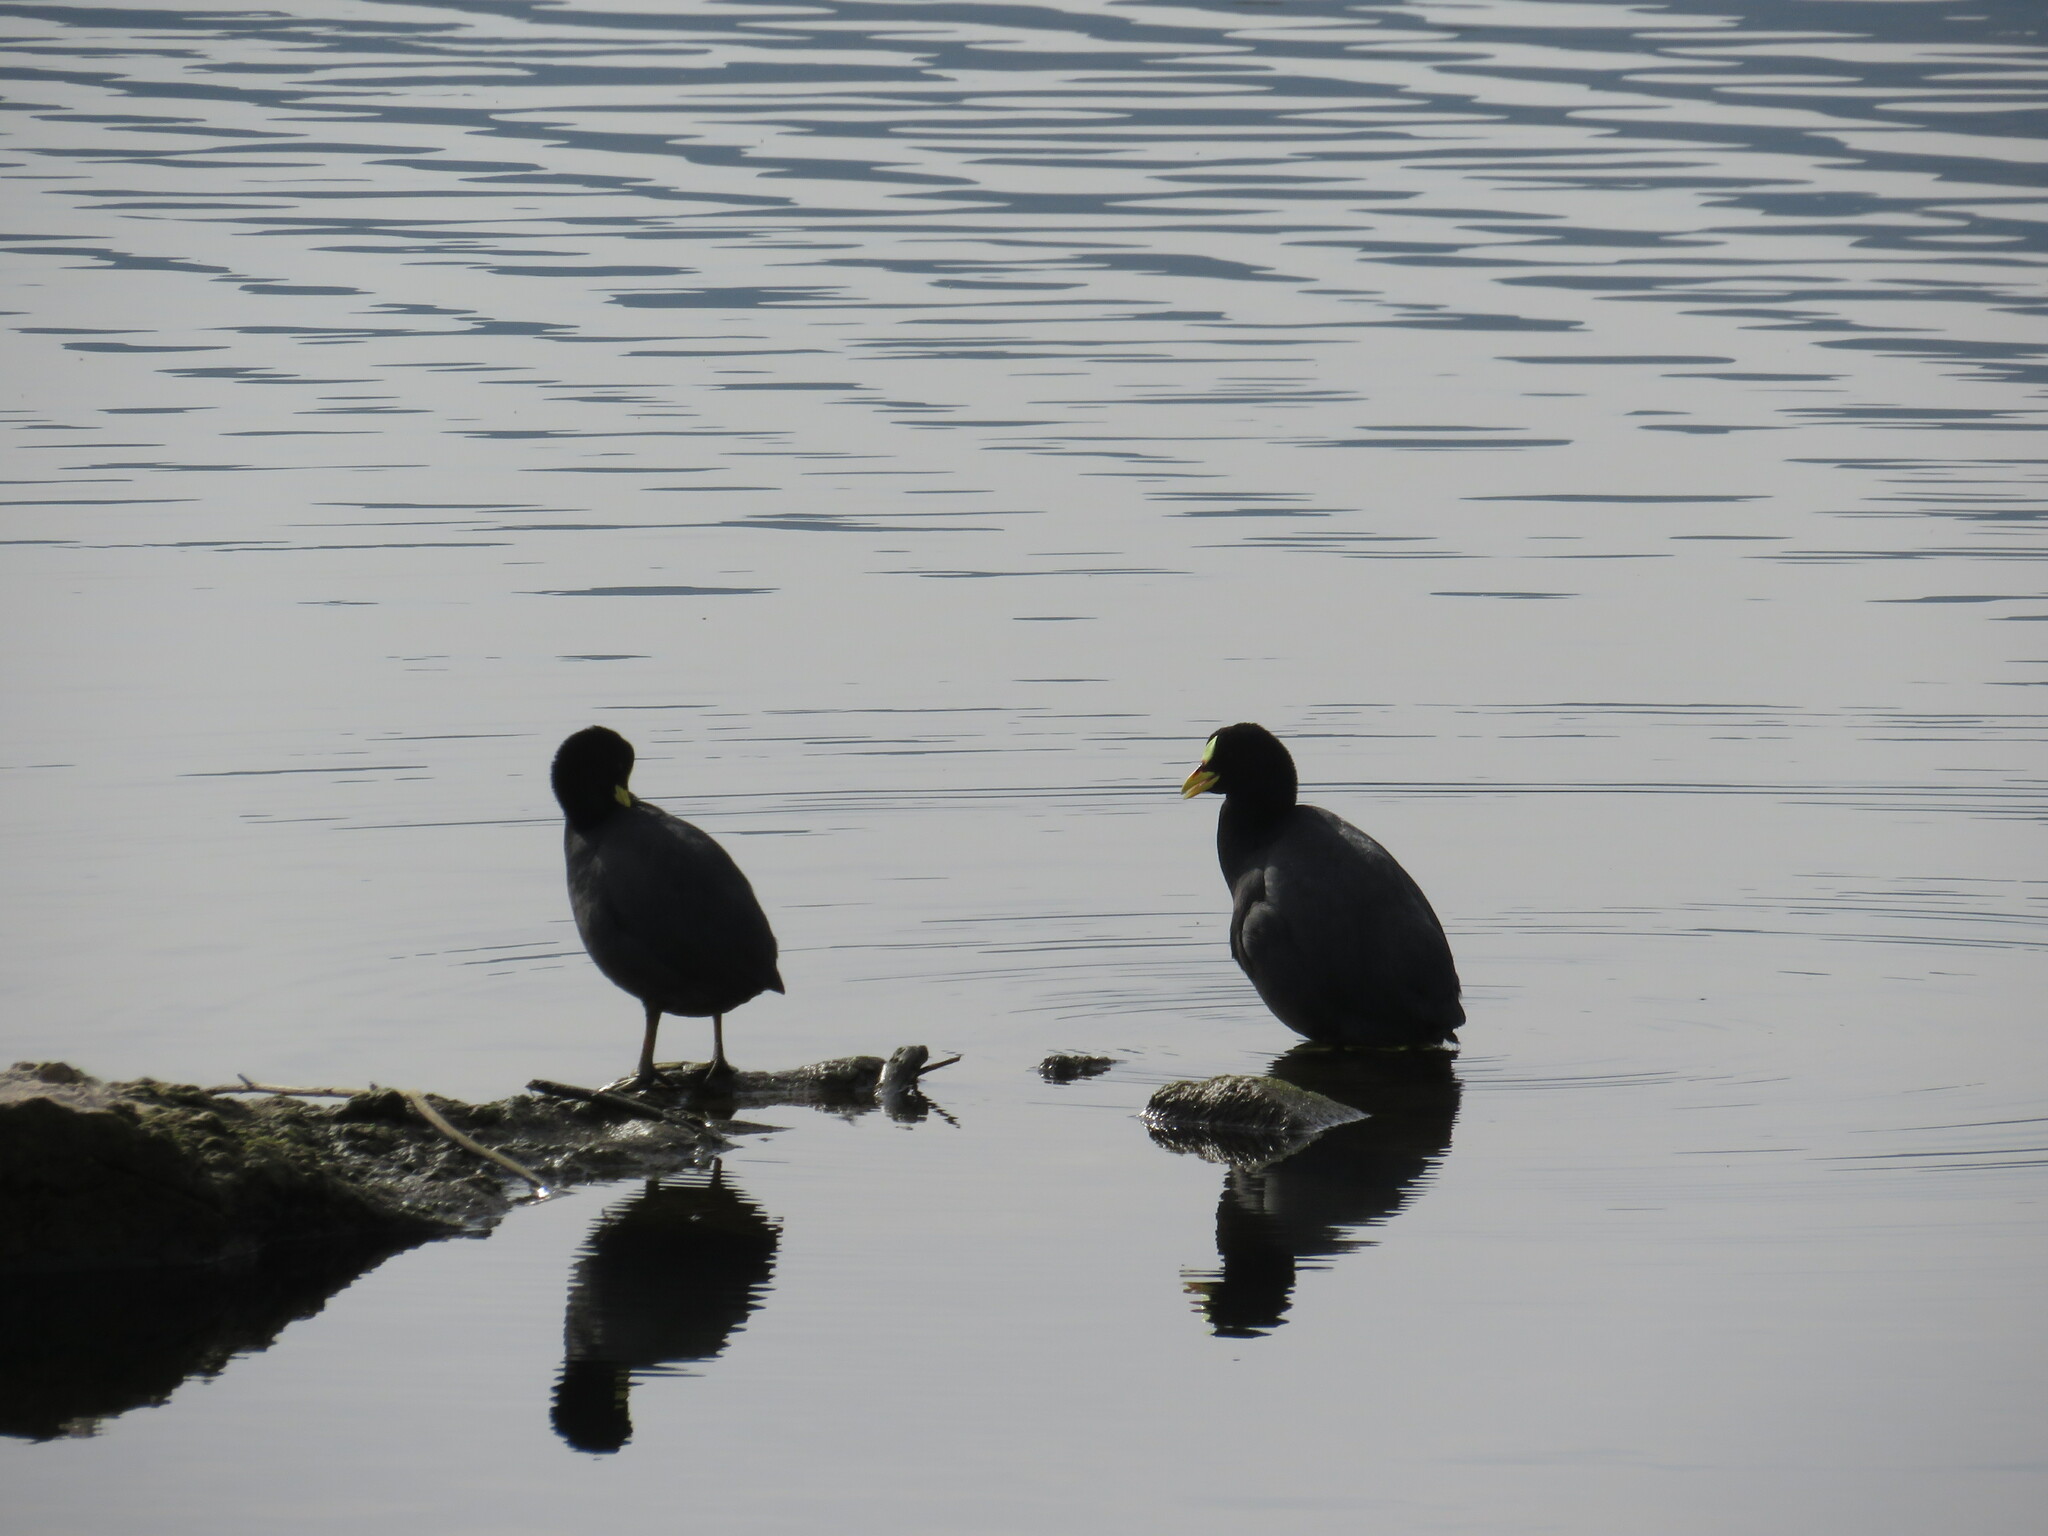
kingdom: Animalia
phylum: Chordata
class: Aves
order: Gruiformes
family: Rallidae
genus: Fulica
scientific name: Fulica armillata
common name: Red-gartered coot
